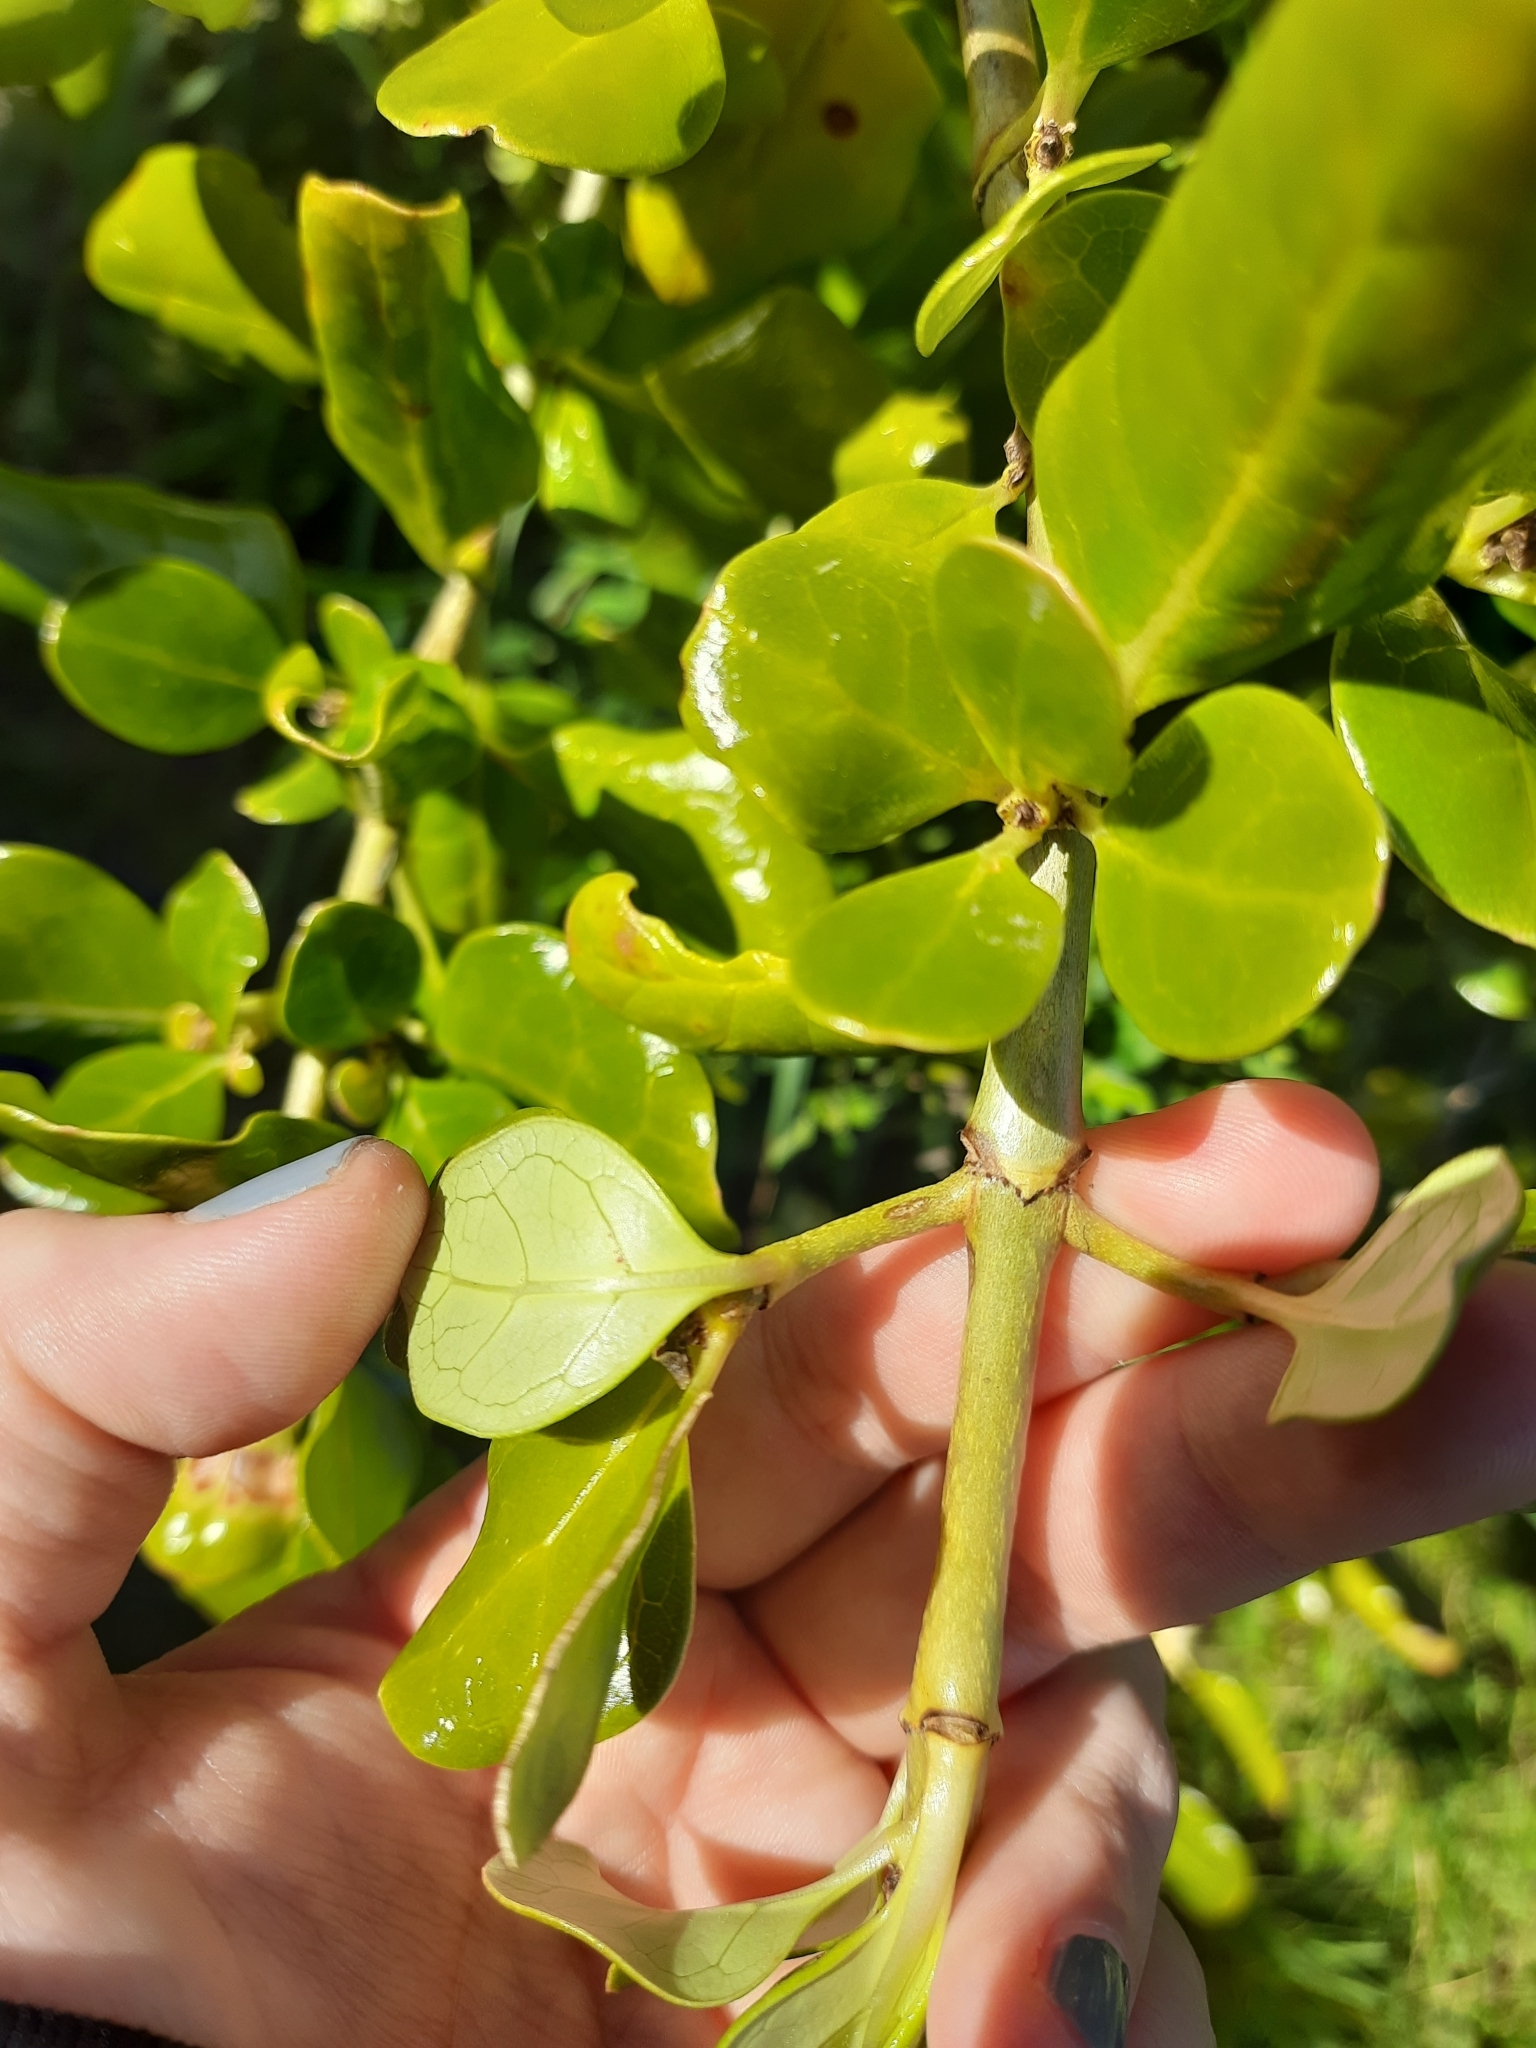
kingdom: Plantae
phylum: Tracheophyta
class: Magnoliopsida
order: Gentianales
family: Rubiaceae
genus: Coprosma
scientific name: Coprosma repens
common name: Tree bedstraw
